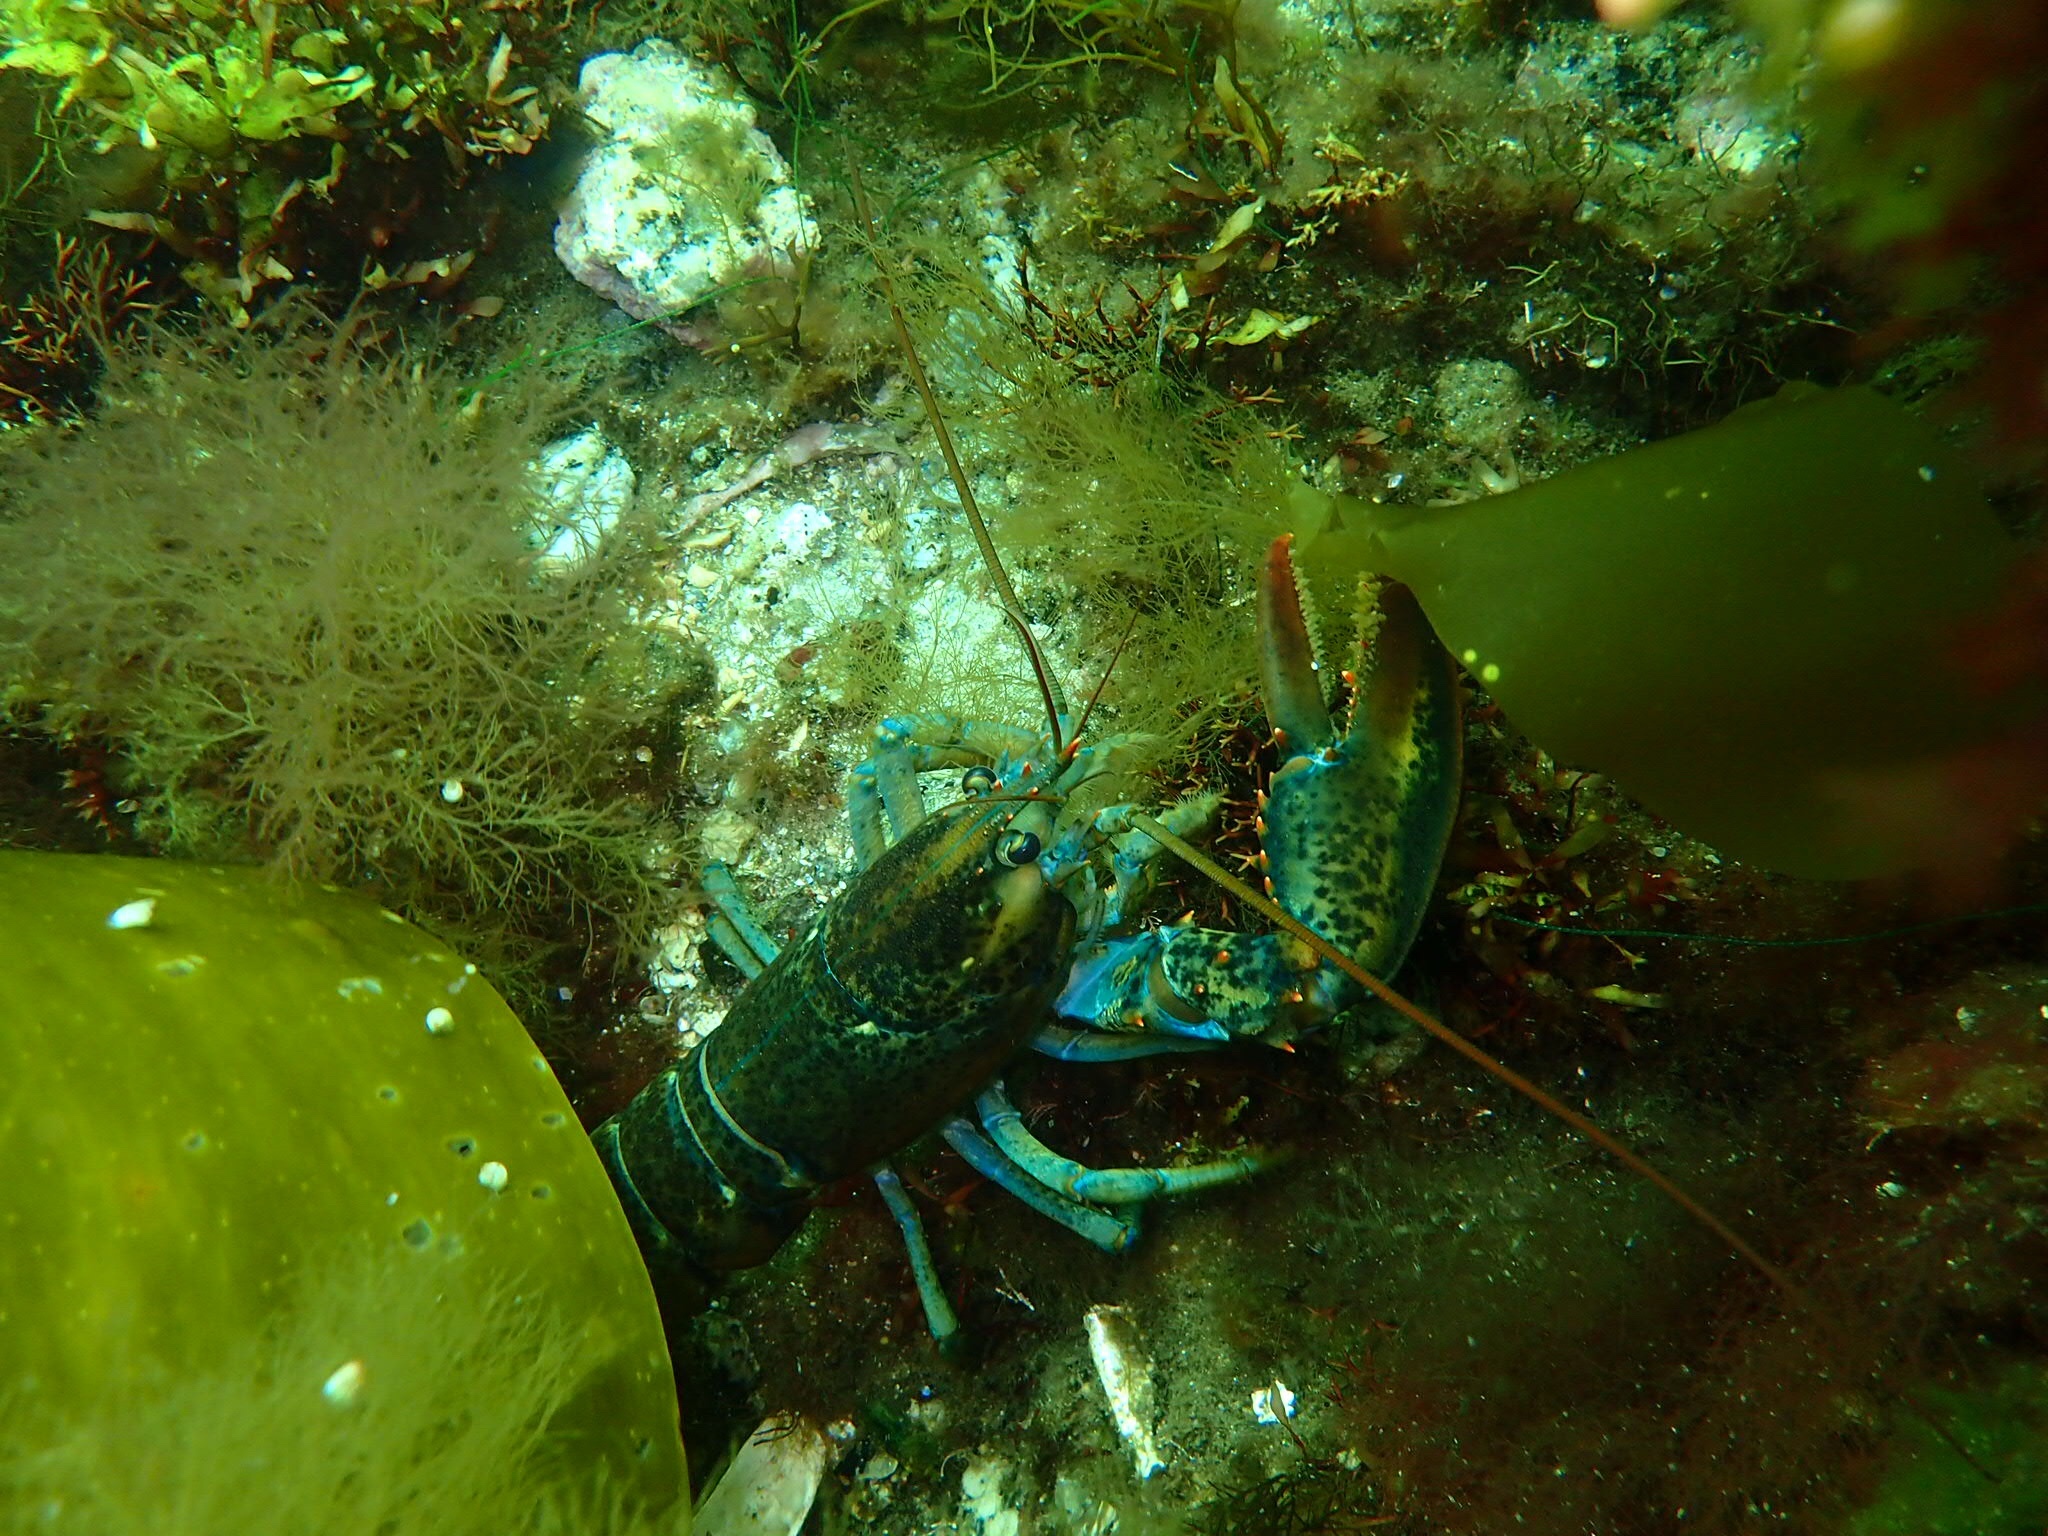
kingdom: Animalia
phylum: Arthropoda
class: Malacostraca
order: Decapoda
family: Nephropidae
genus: Homarus
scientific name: Homarus americanus
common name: American lobster
